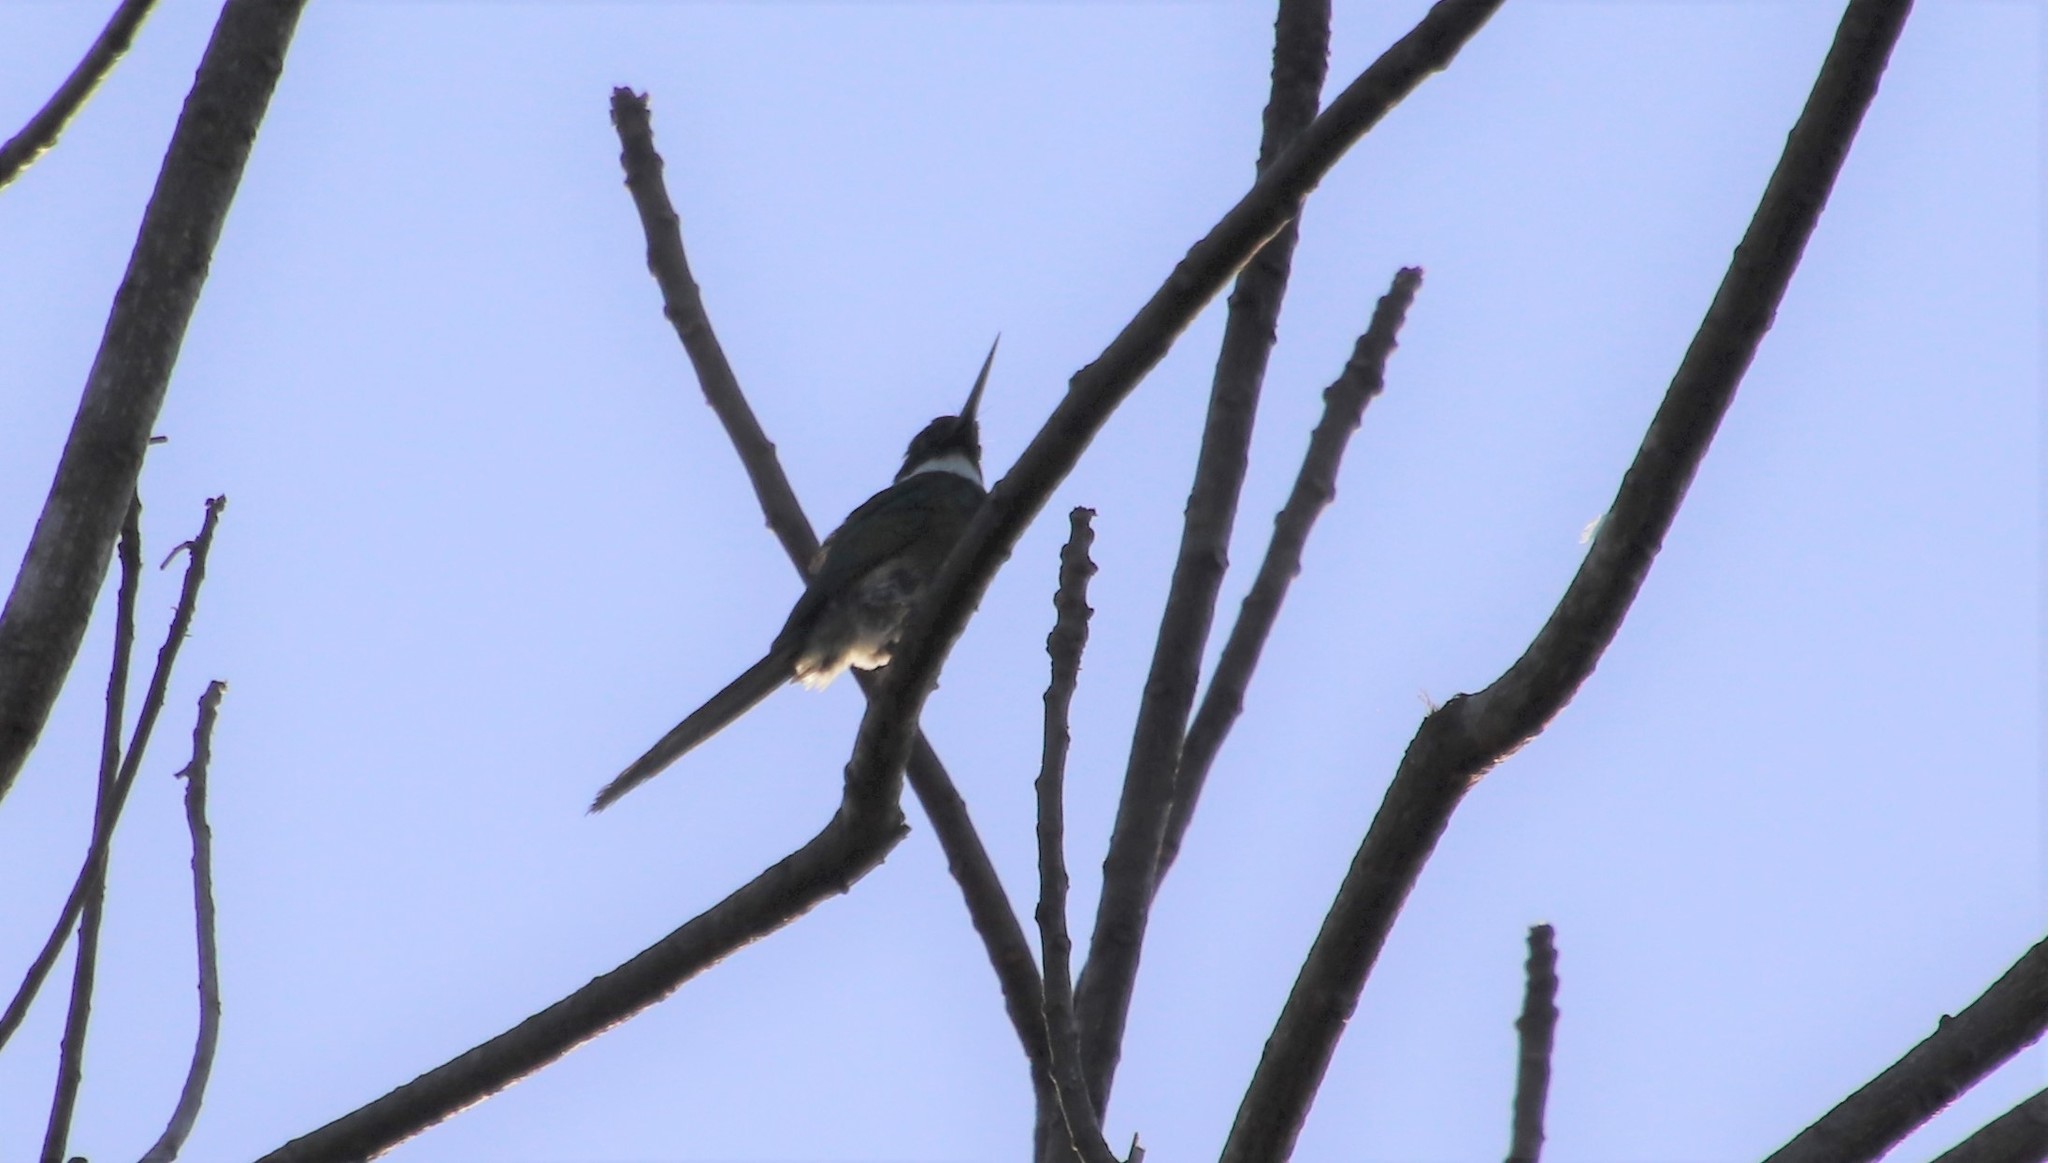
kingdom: Animalia
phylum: Chordata
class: Aves
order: Piciformes
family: Galbulidae
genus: Galbula
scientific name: Galbula leucogastra
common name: Bronzy jacamar
